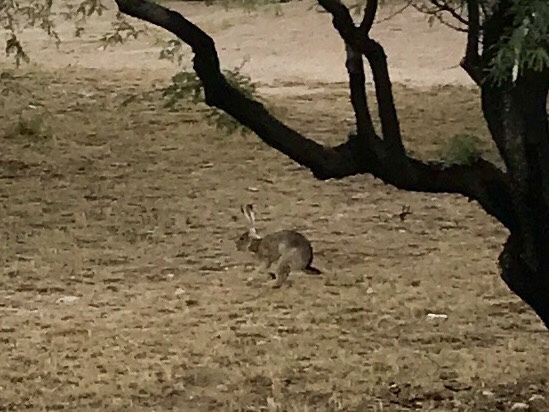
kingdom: Animalia
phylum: Chordata
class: Mammalia
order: Lagomorpha
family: Leporidae
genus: Lepus
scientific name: Lepus californicus
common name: Black-tailed jackrabbit
